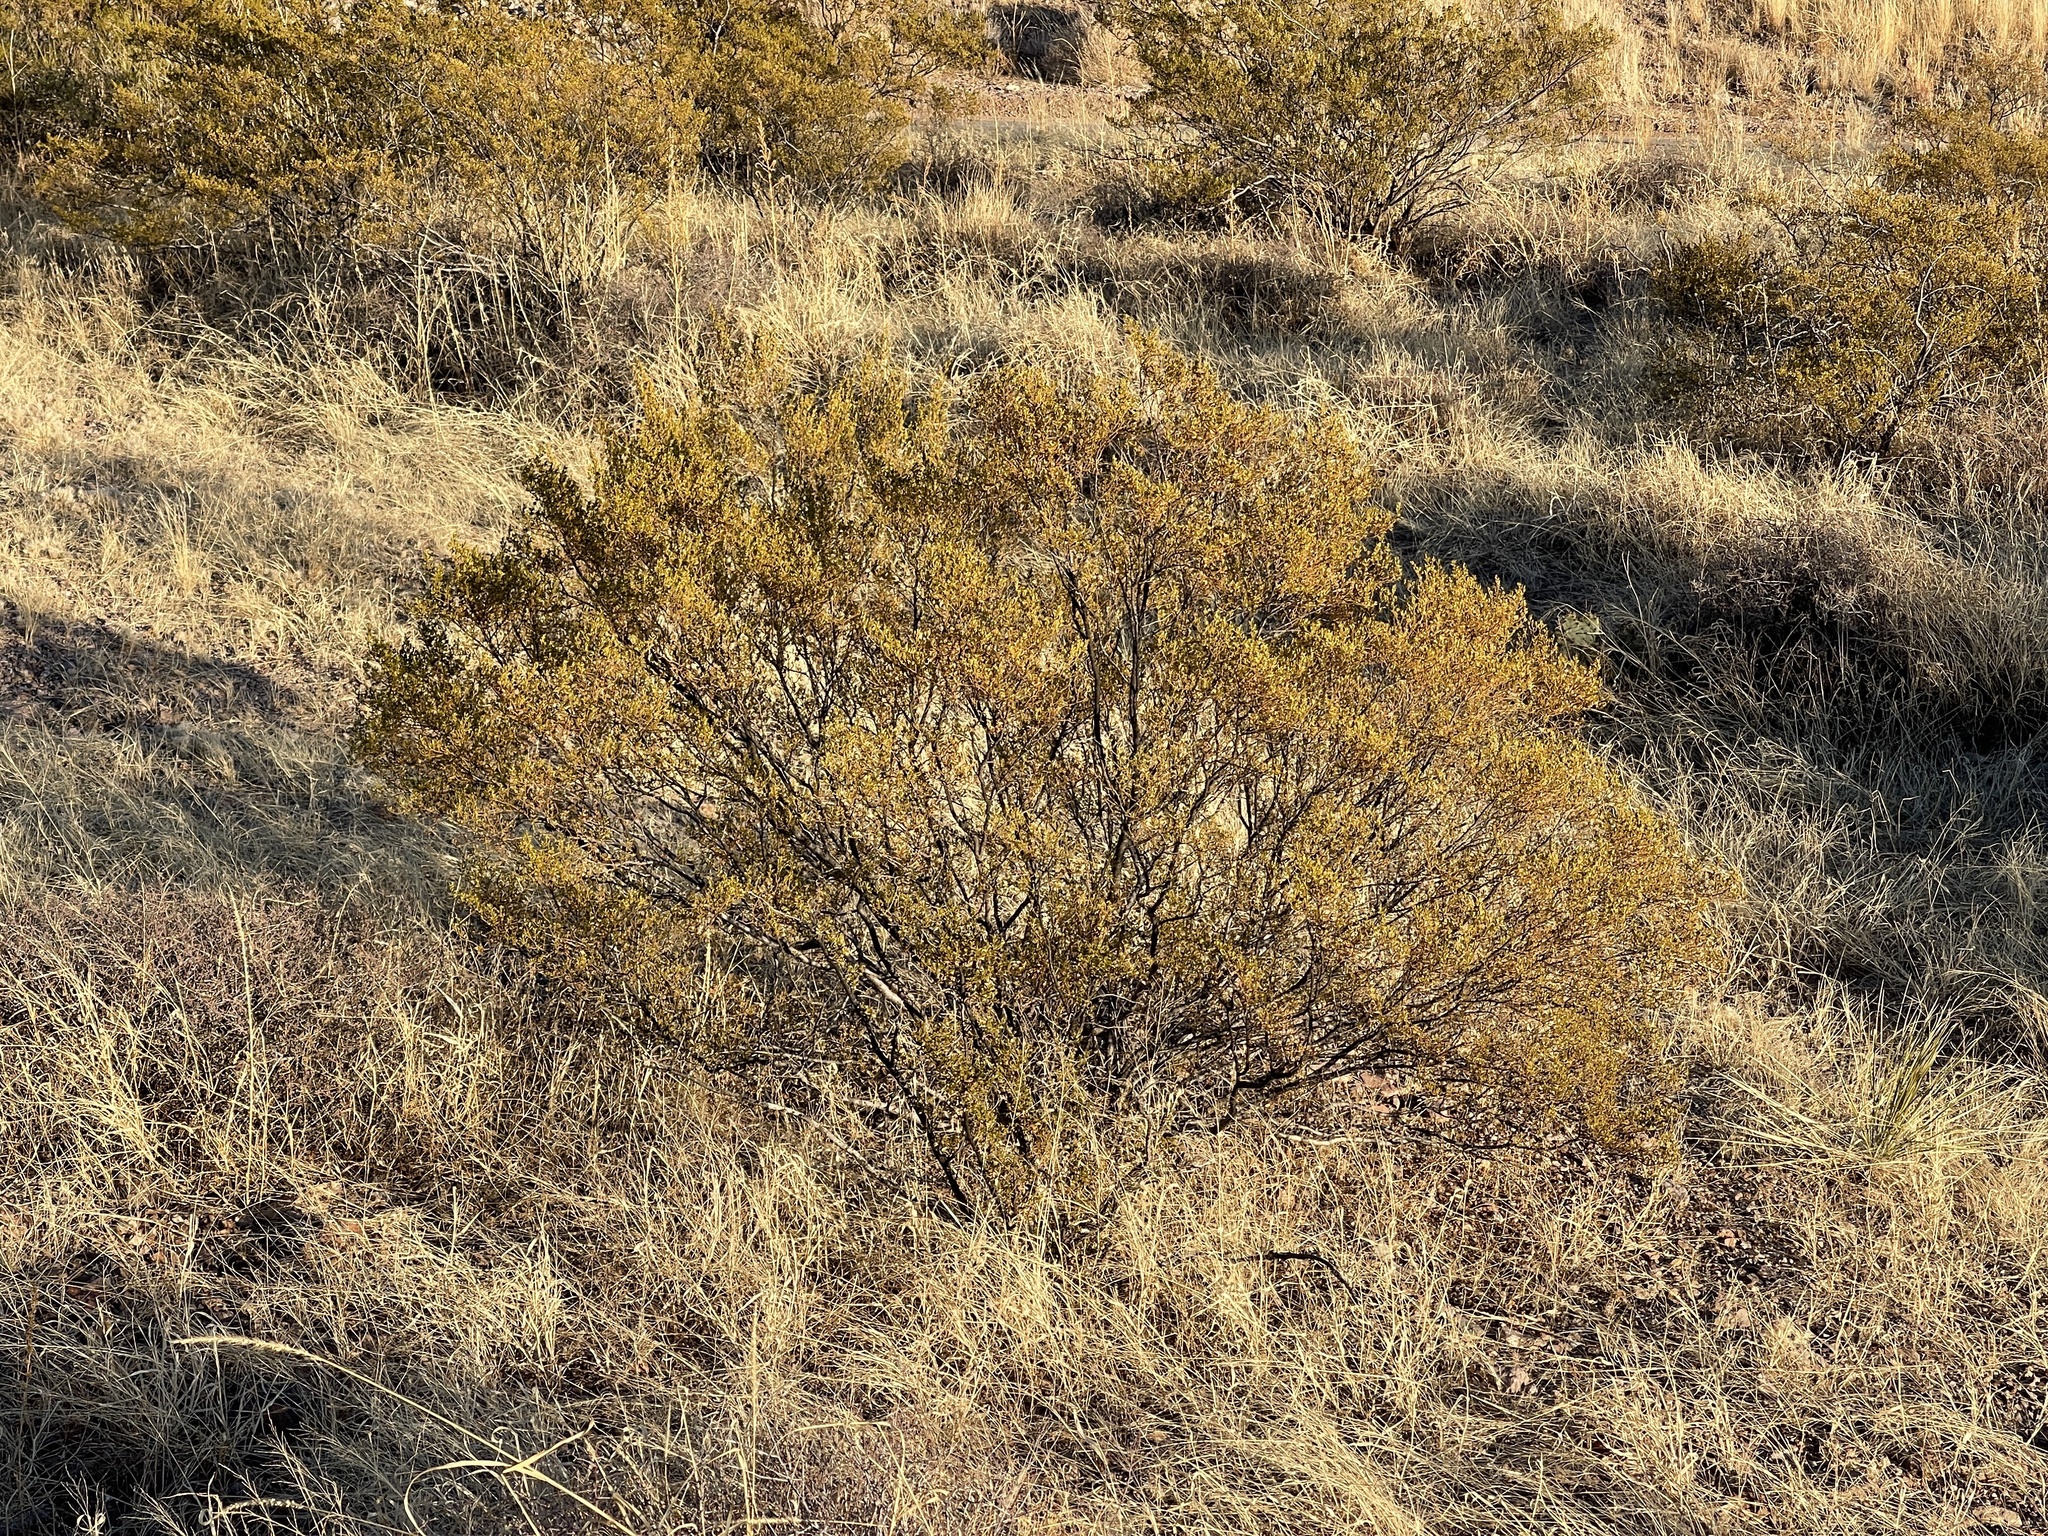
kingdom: Plantae
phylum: Tracheophyta
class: Magnoliopsida
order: Zygophyllales
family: Zygophyllaceae
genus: Larrea
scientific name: Larrea tridentata
